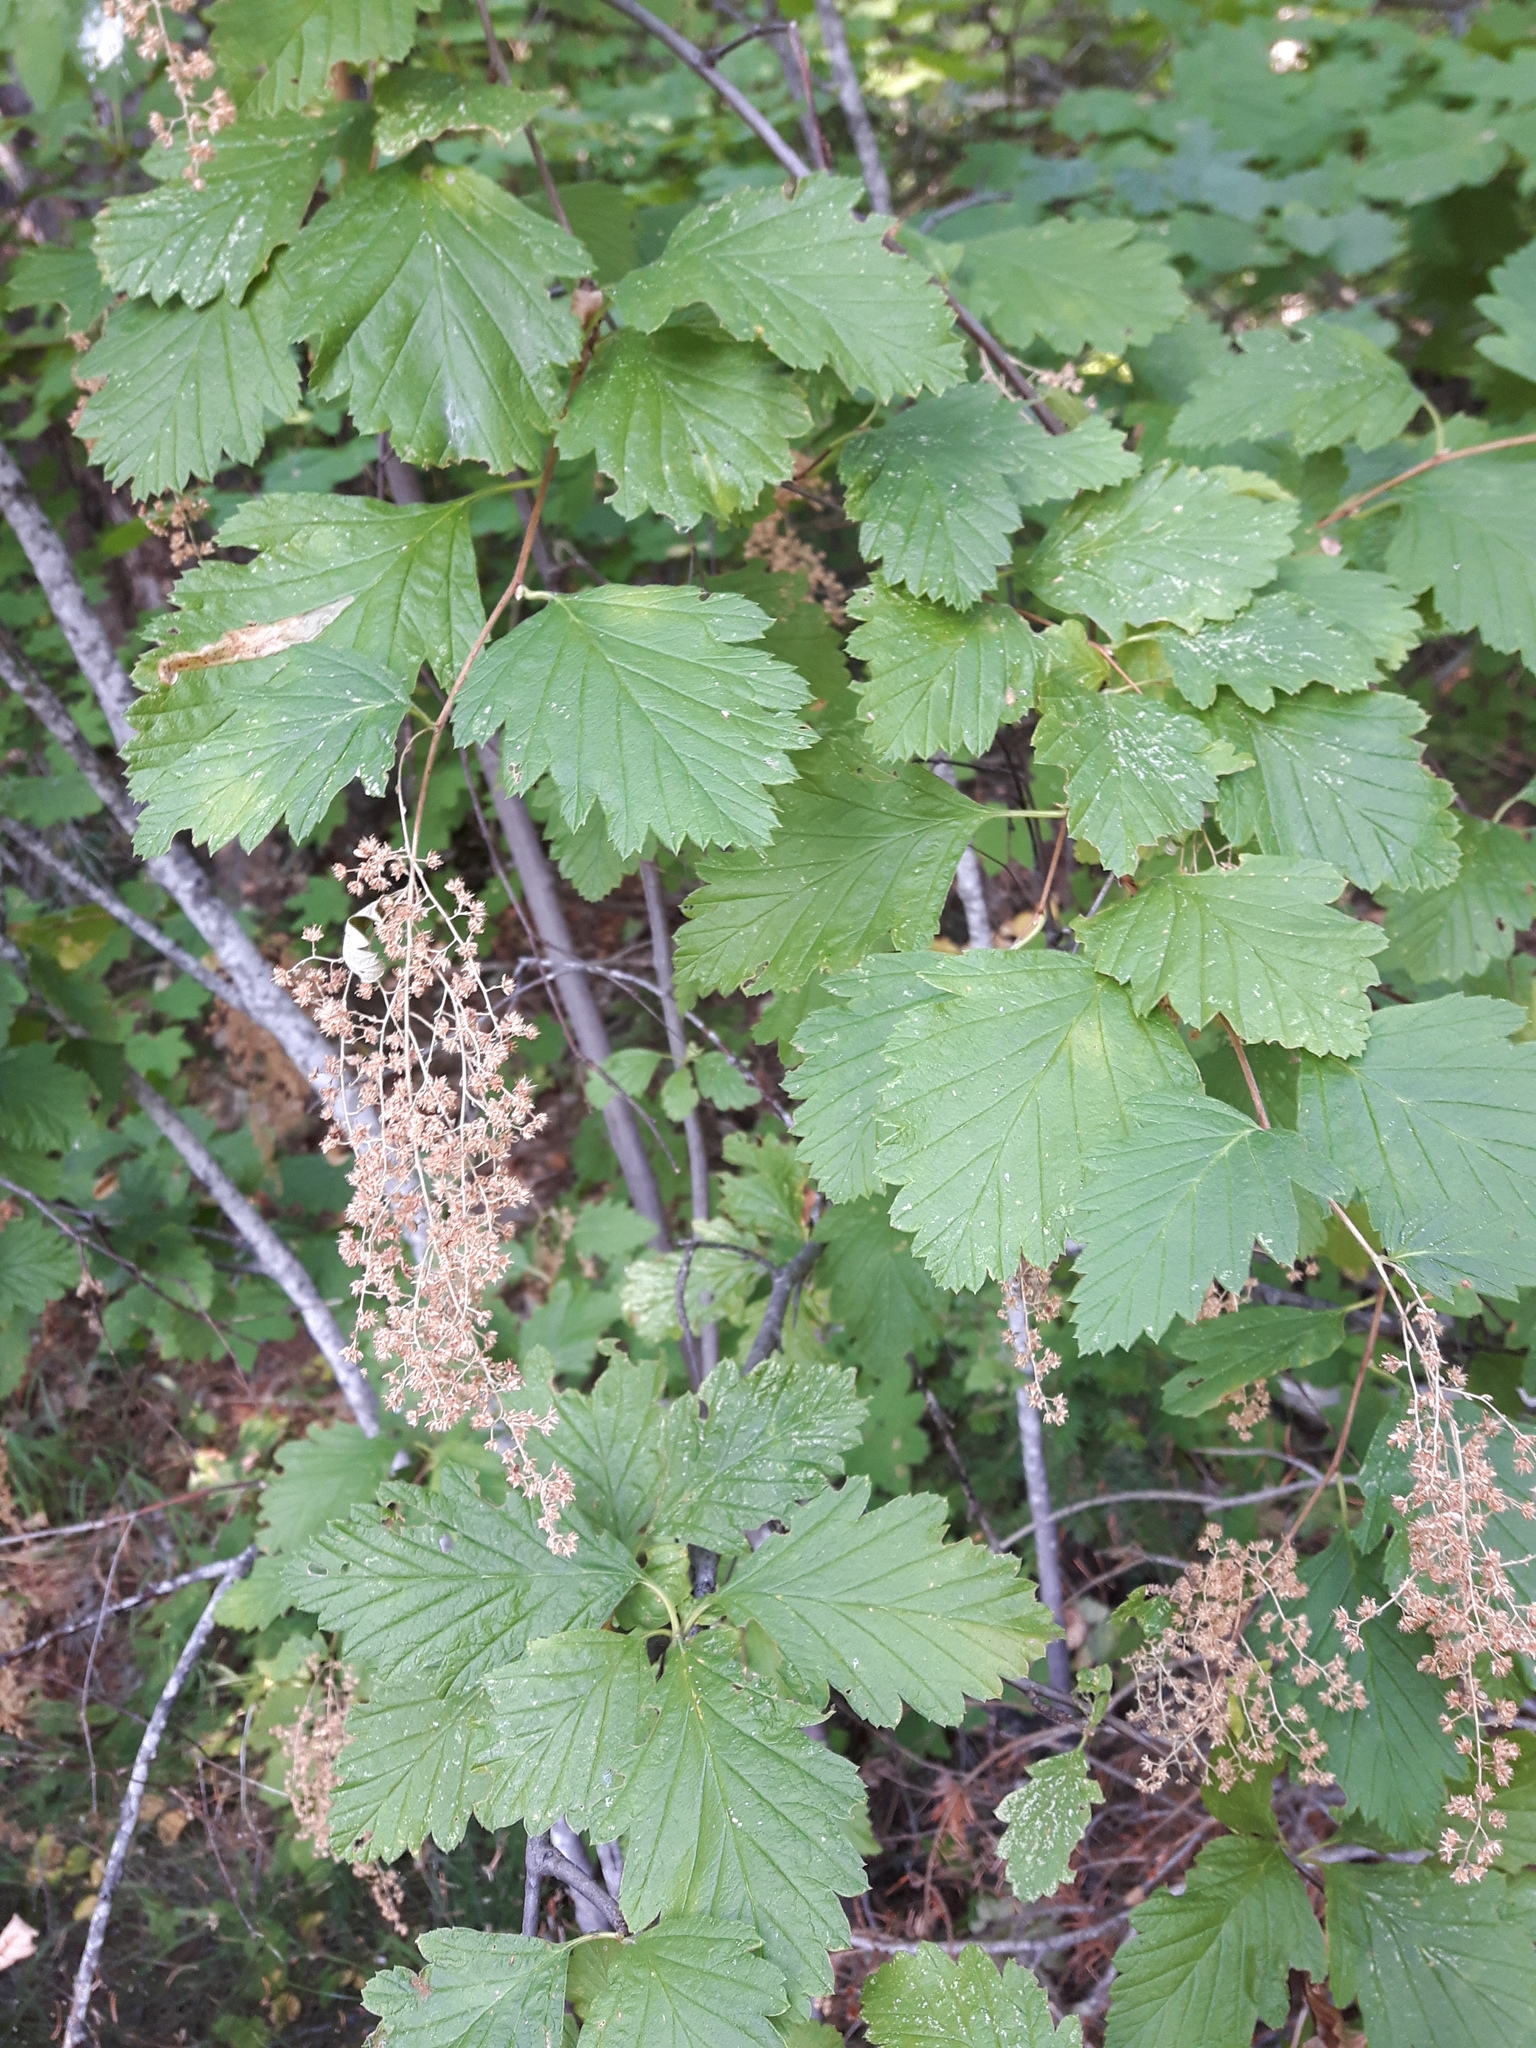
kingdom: Plantae
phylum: Tracheophyta
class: Magnoliopsida
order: Rosales
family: Rosaceae
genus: Holodiscus
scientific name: Holodiscus discolor
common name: Oceanspray
